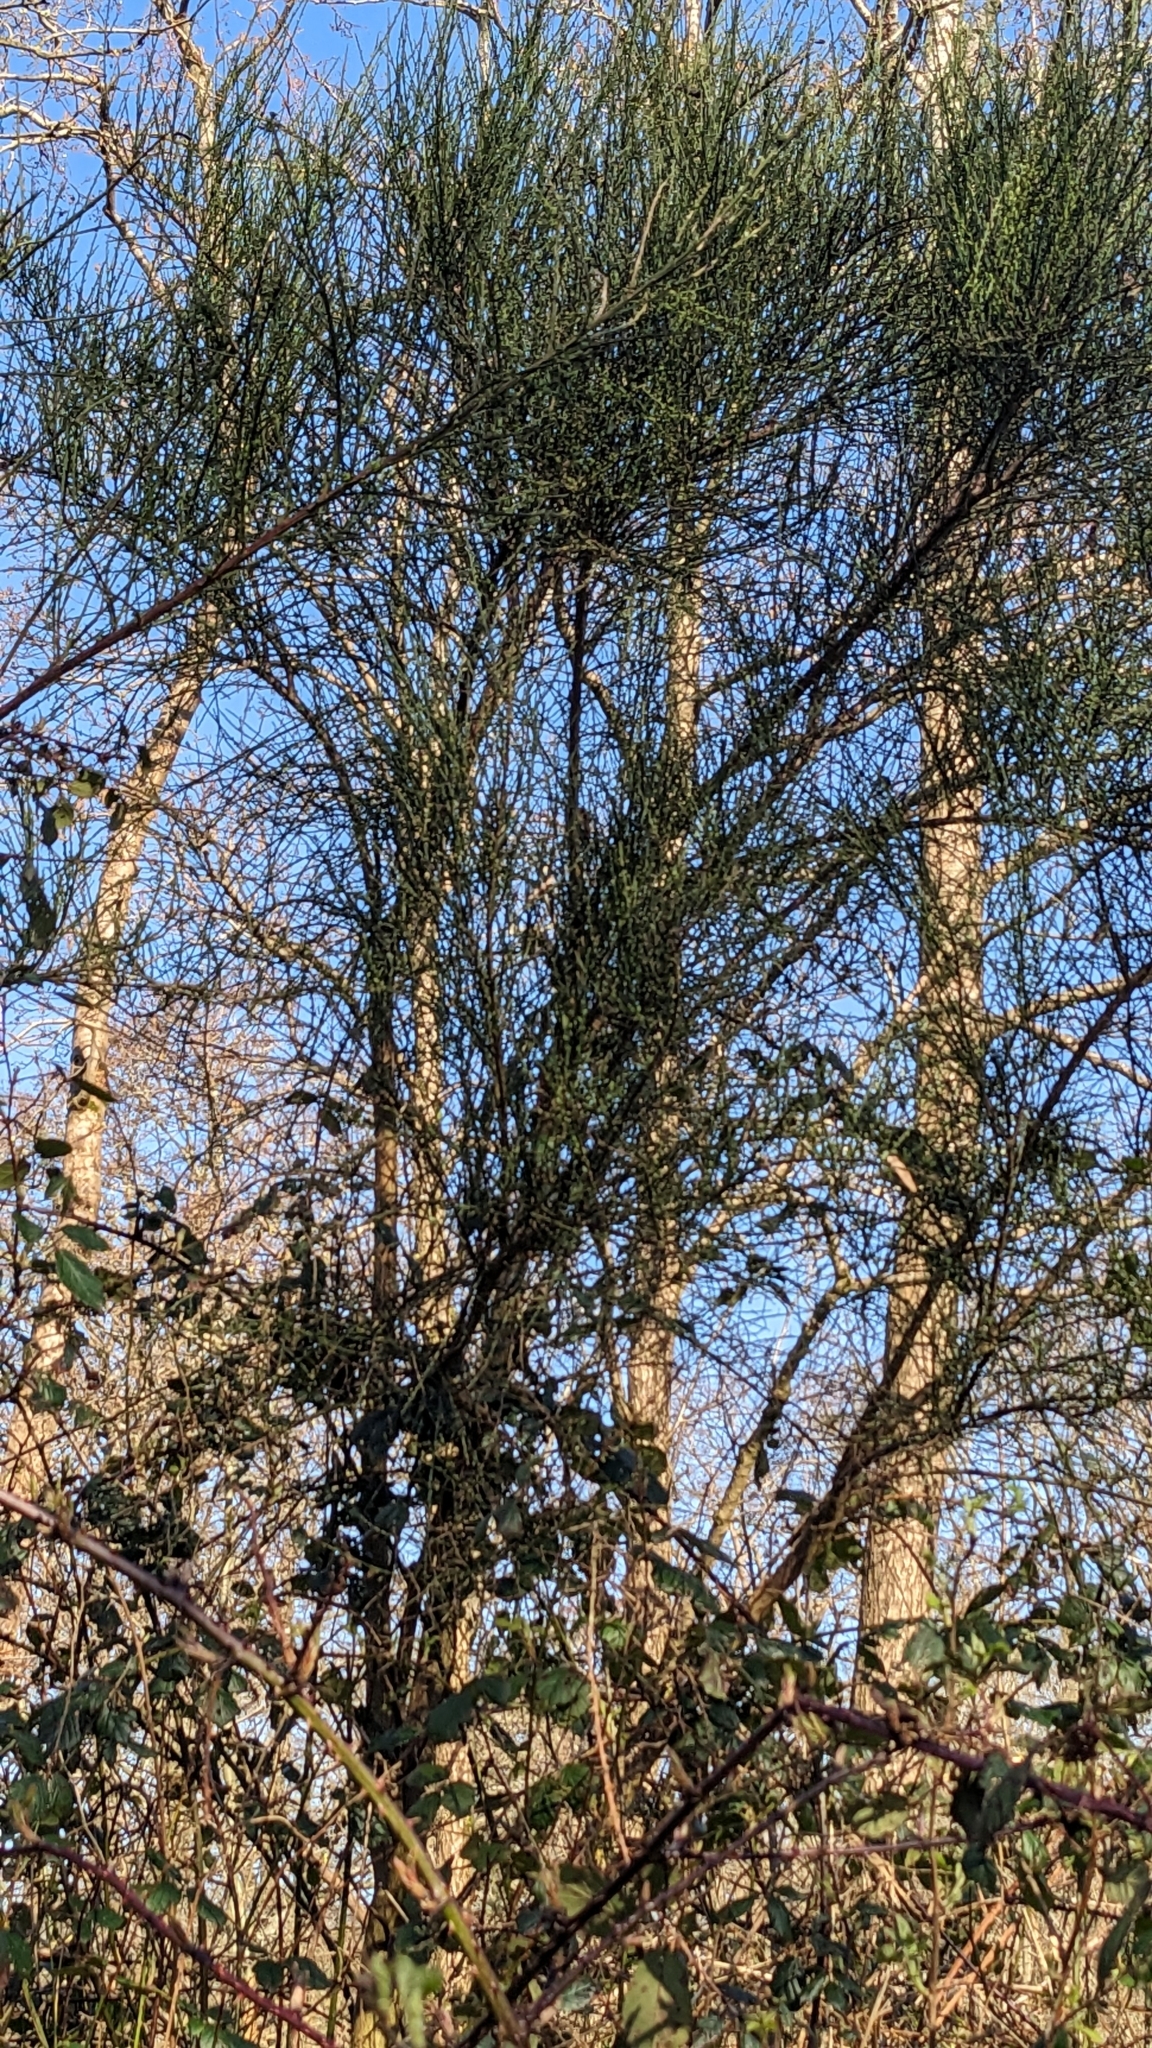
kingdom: Plantae
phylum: Tracheophyta
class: Magnoliopsida
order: Fabales
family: Fabaceae
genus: Cytisus
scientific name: Cytisus scoparius
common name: Scotch broom
